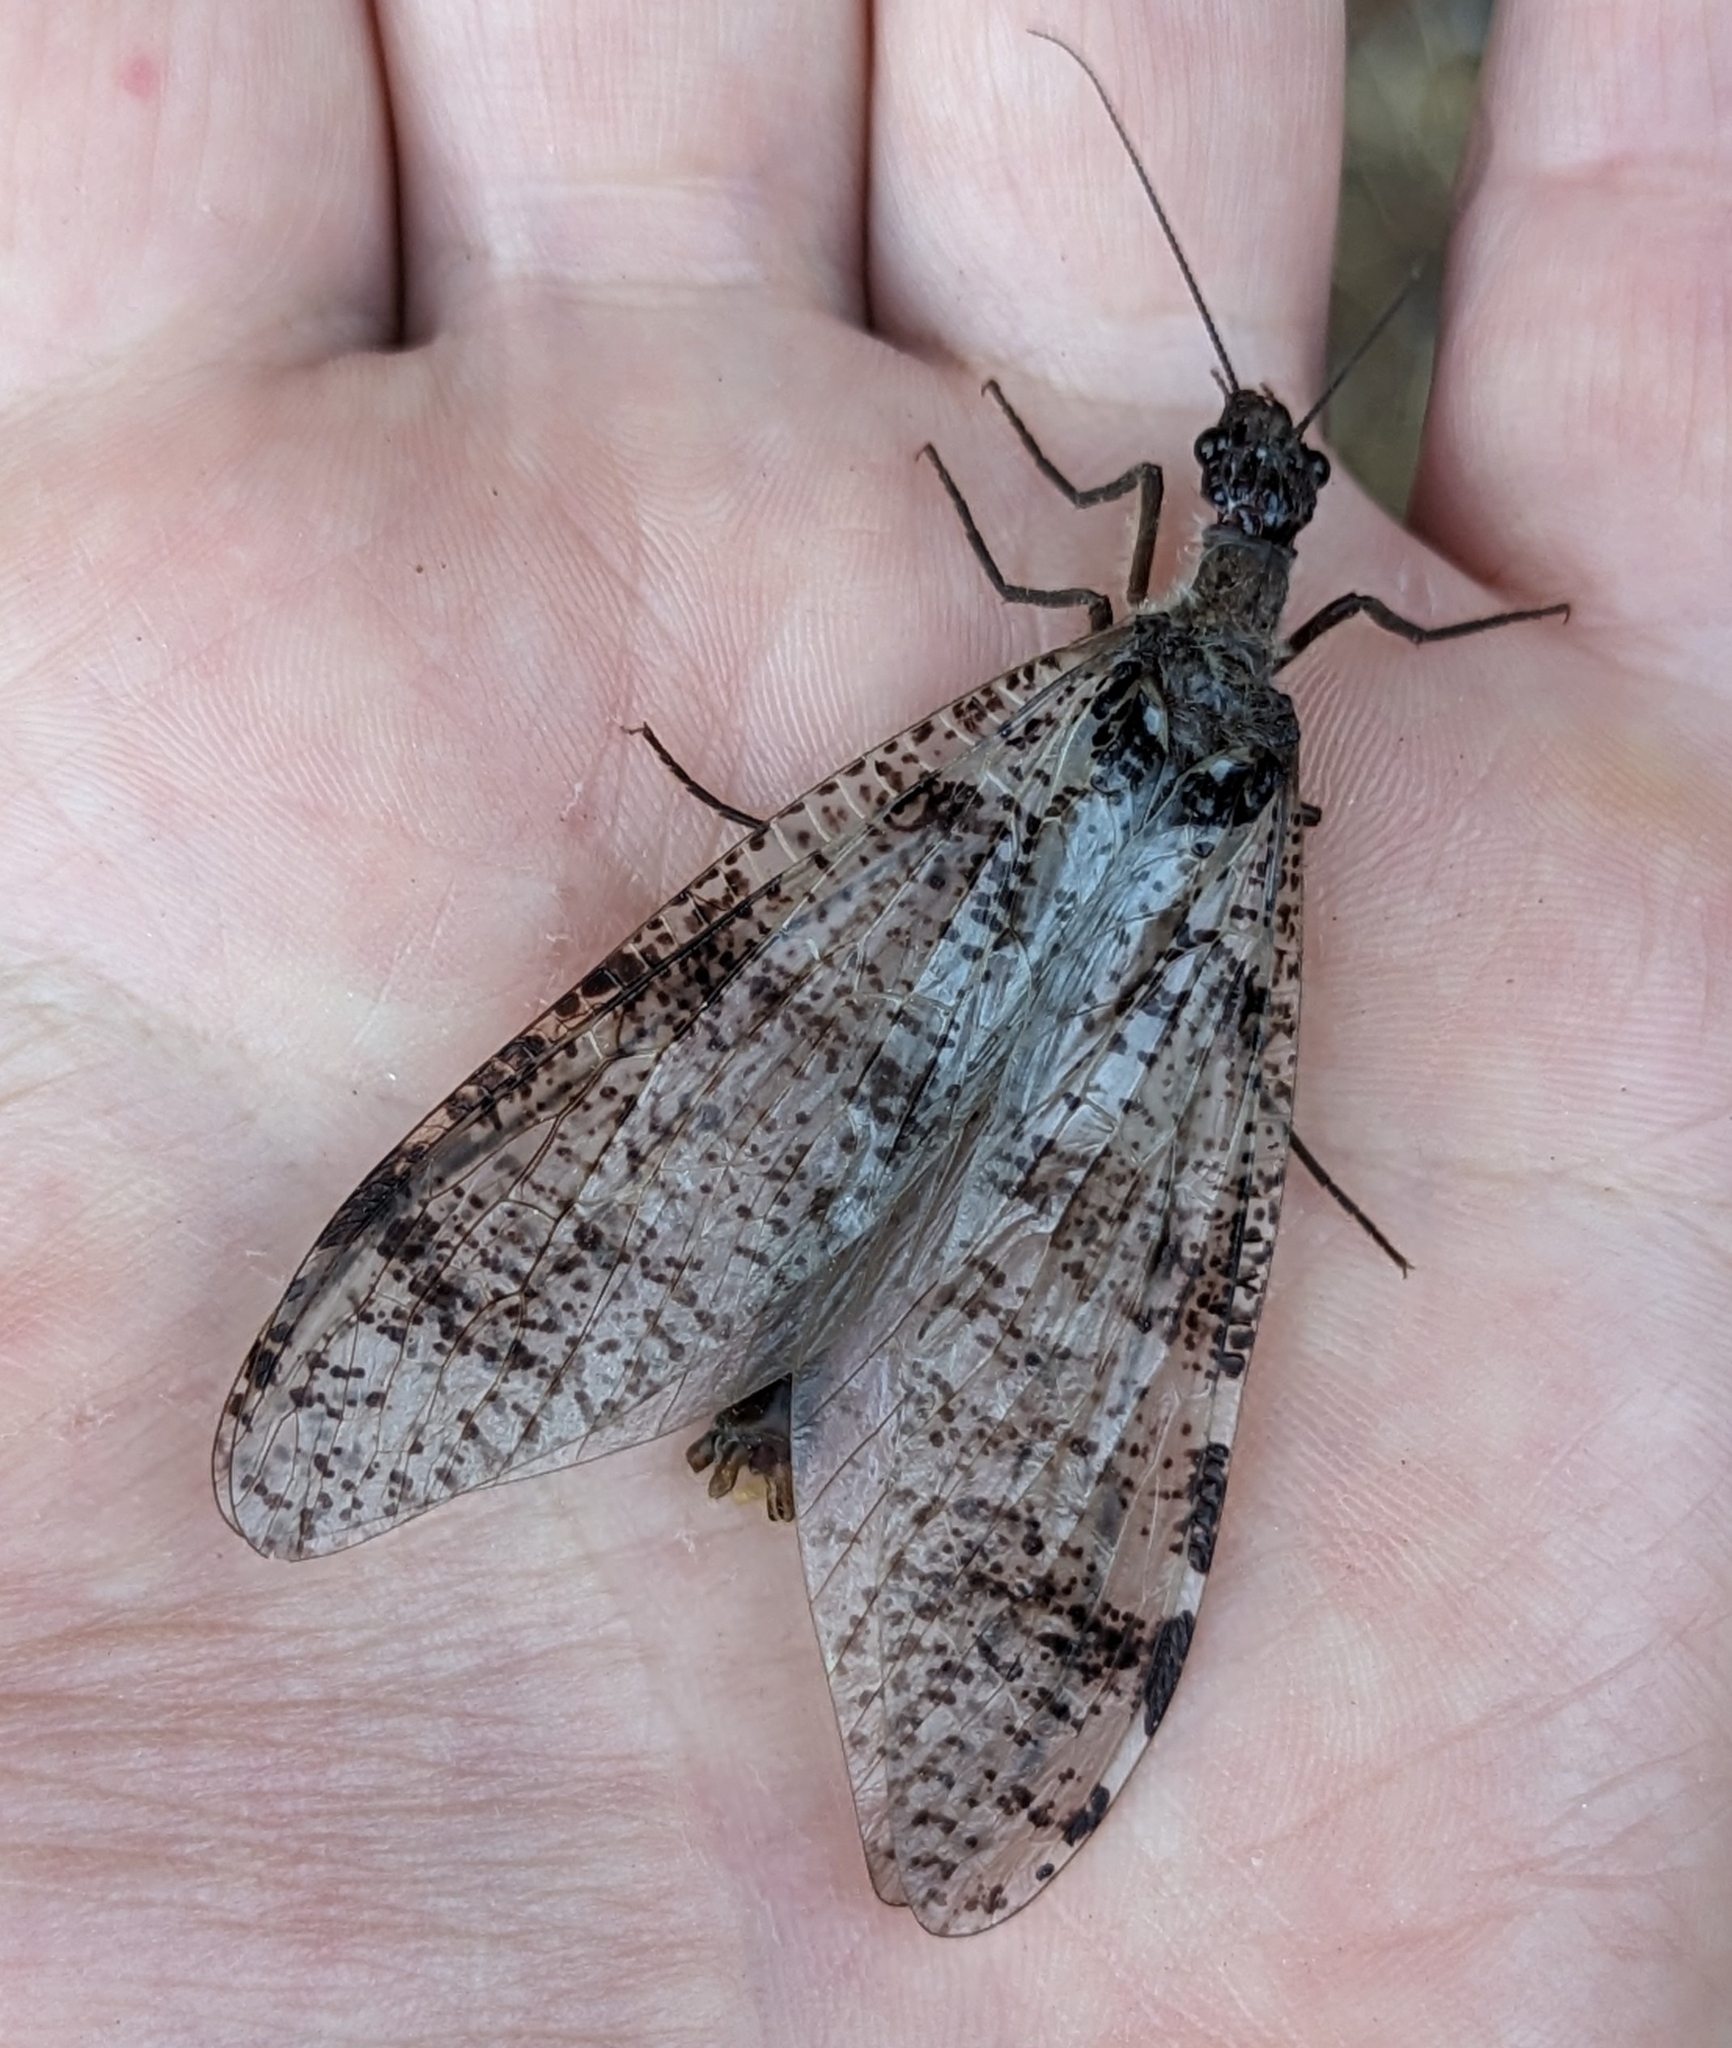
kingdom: Animalia
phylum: Arthropoda
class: Insecta
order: Megaloptera
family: Corydalidae
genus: Dysmicohermes
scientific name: Dysmicohermes disjunctus
